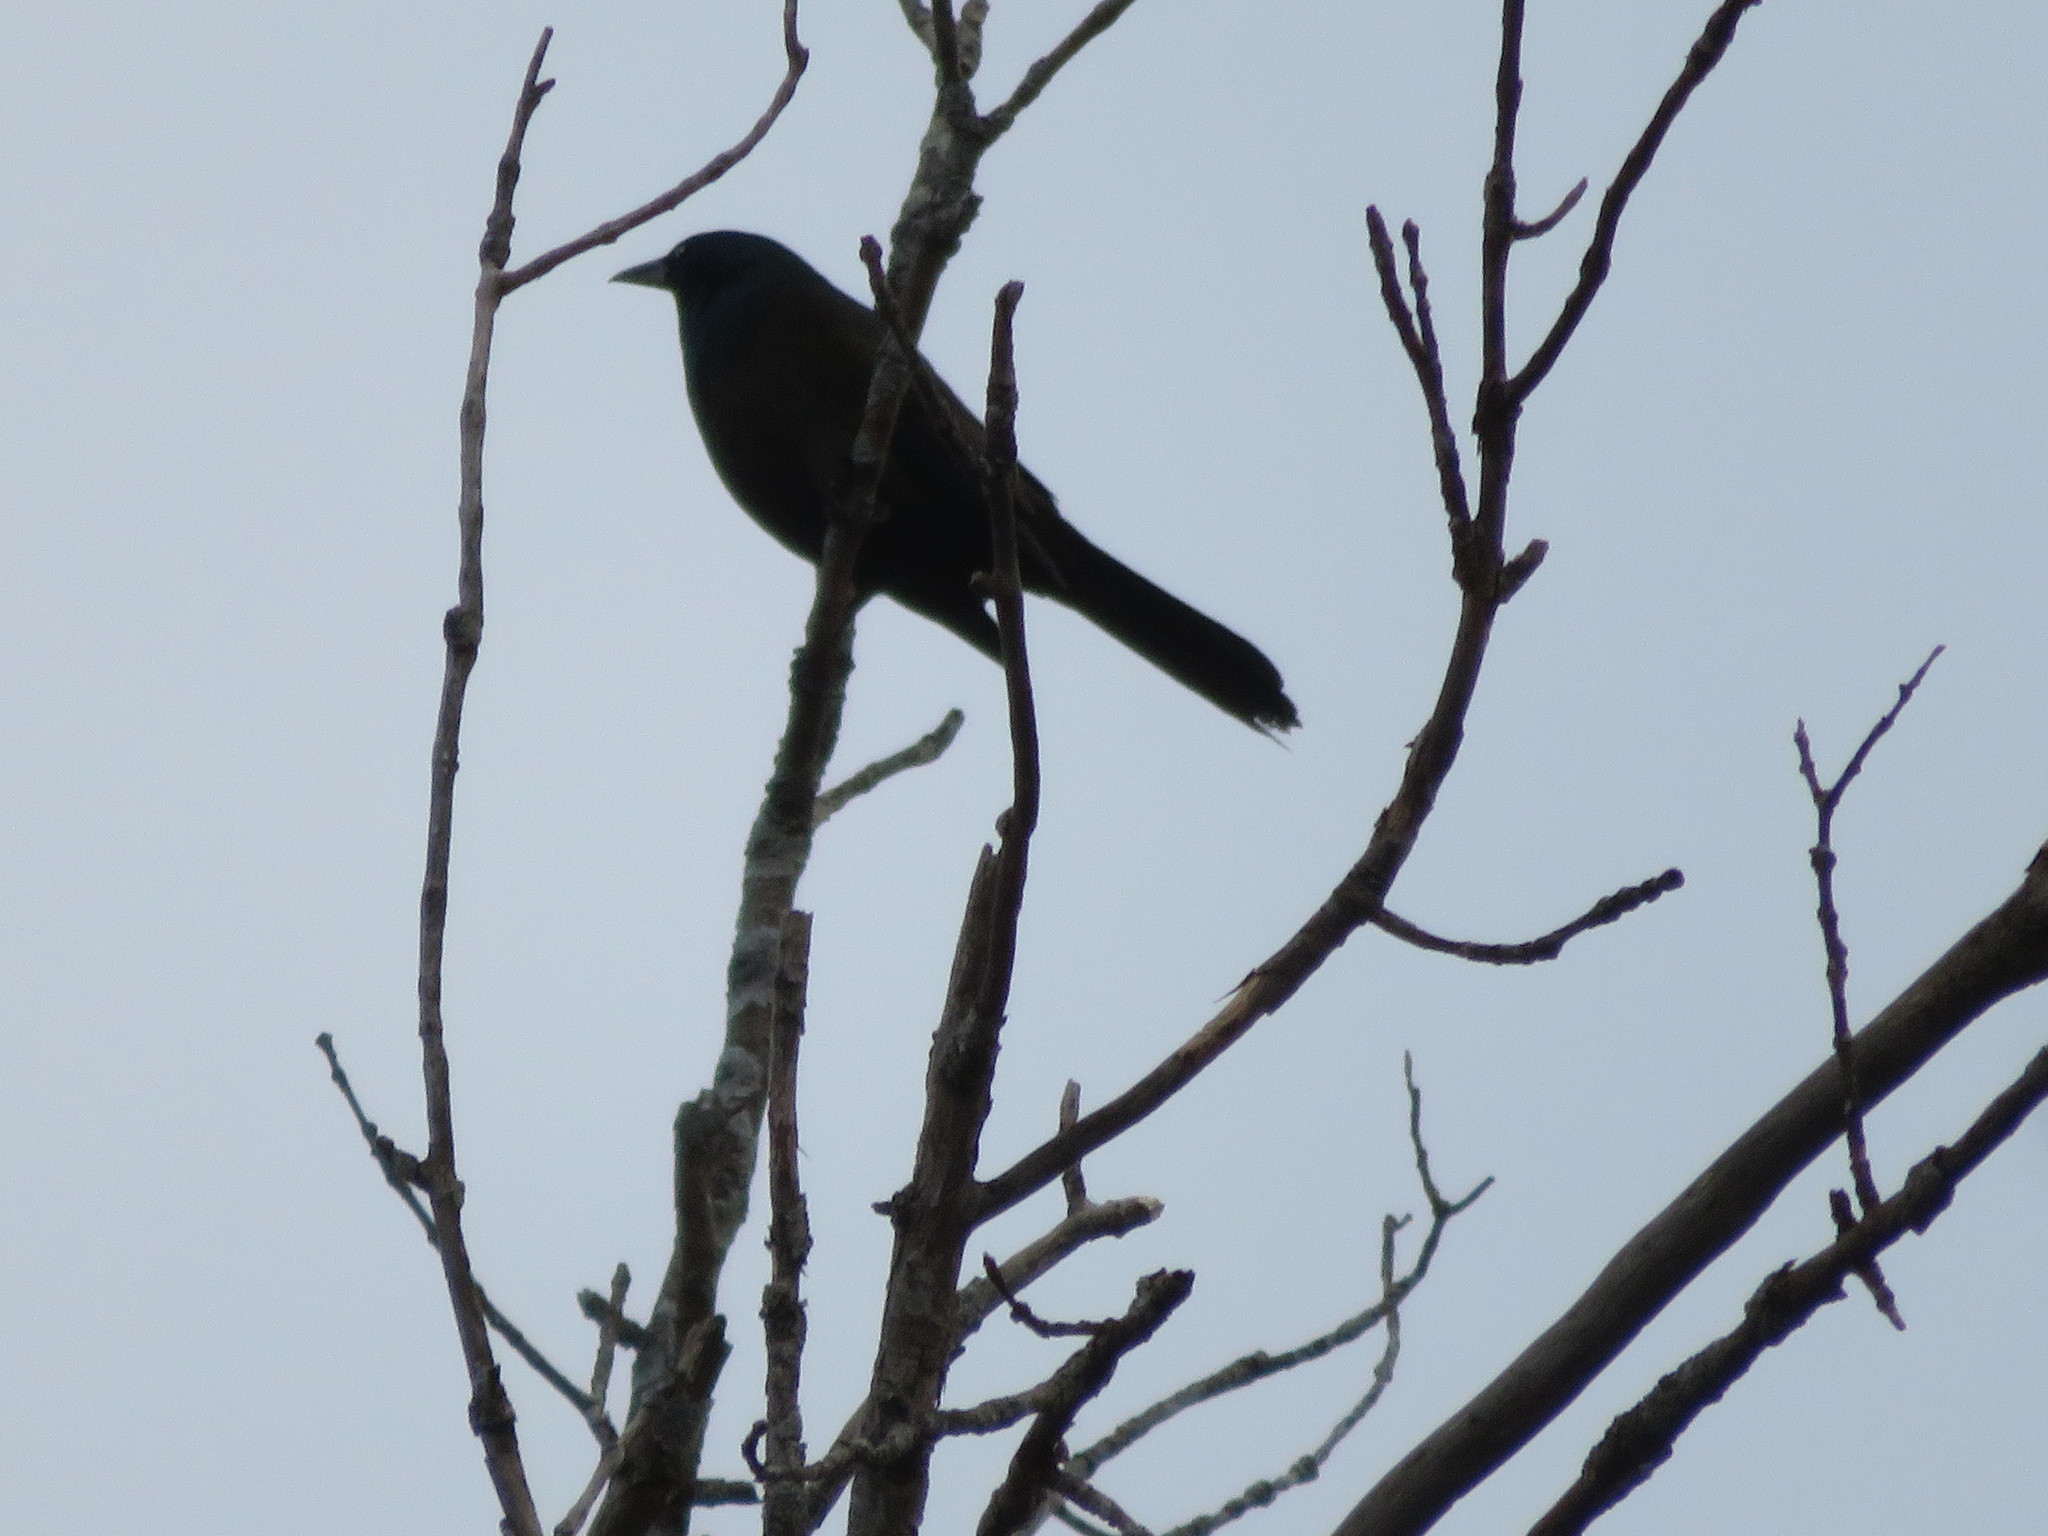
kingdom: Animalia
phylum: Chordata
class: Aves
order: Passeriformes
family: Icteridae
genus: Quiscalus
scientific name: Quiscalus quiscula
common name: Common grackle
